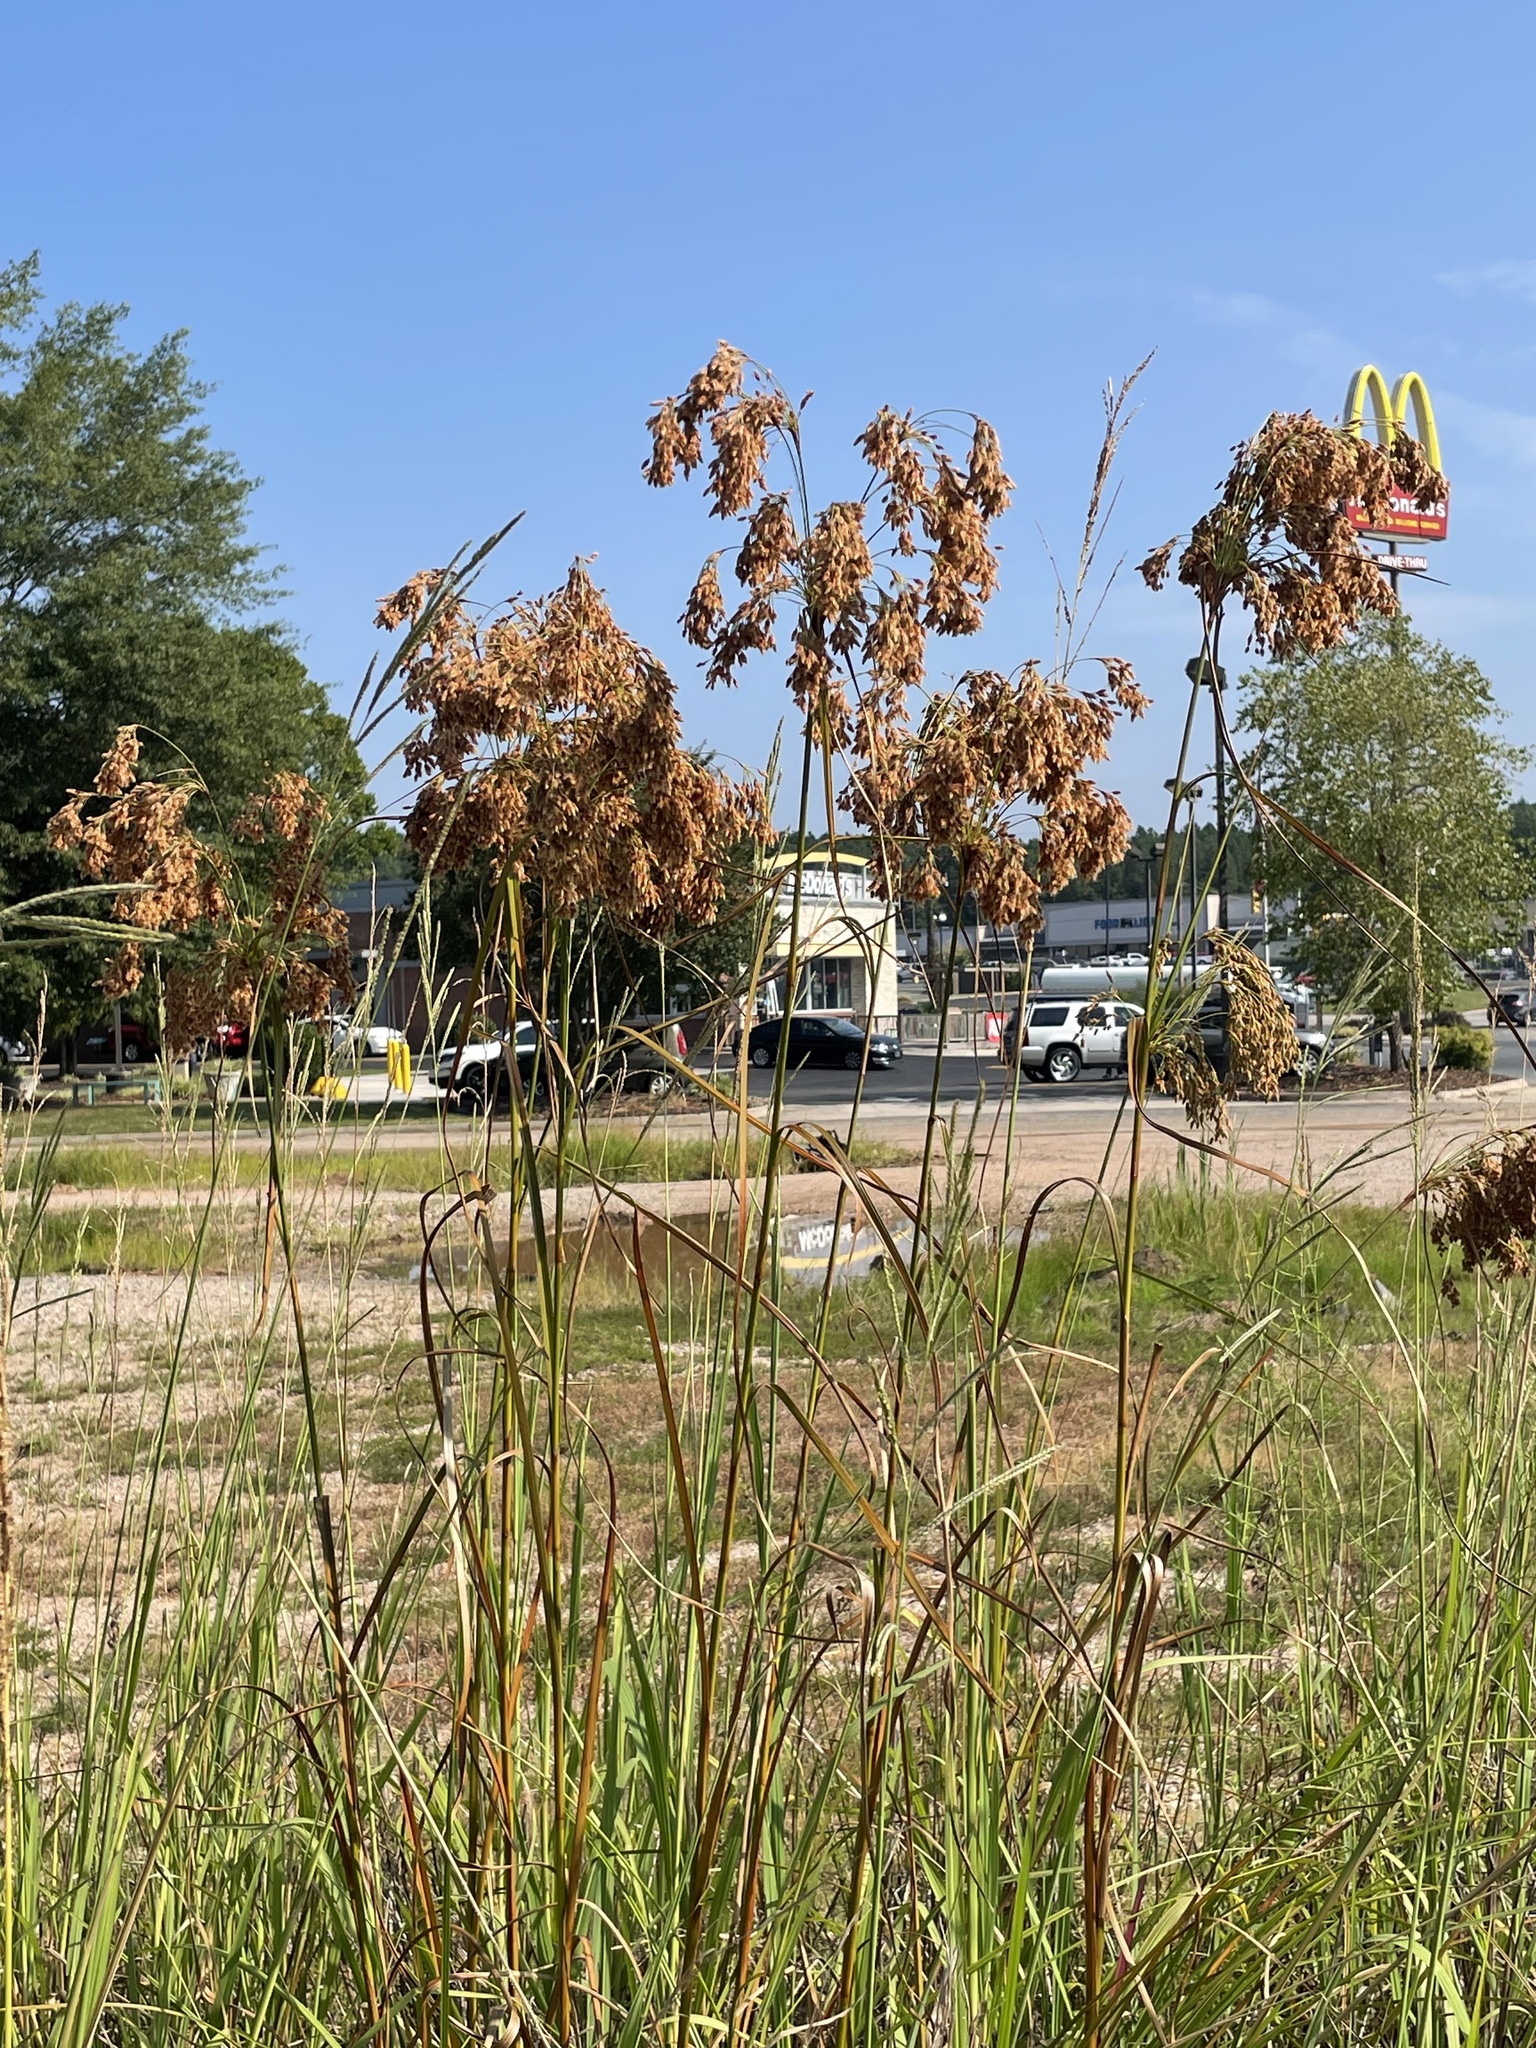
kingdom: Plantae
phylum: Tracheophyta
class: Liliopsida
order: Poales
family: Cyperaceae
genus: Scirpus
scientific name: Scirpus cyperinus
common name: Black-sheathed bulrush
